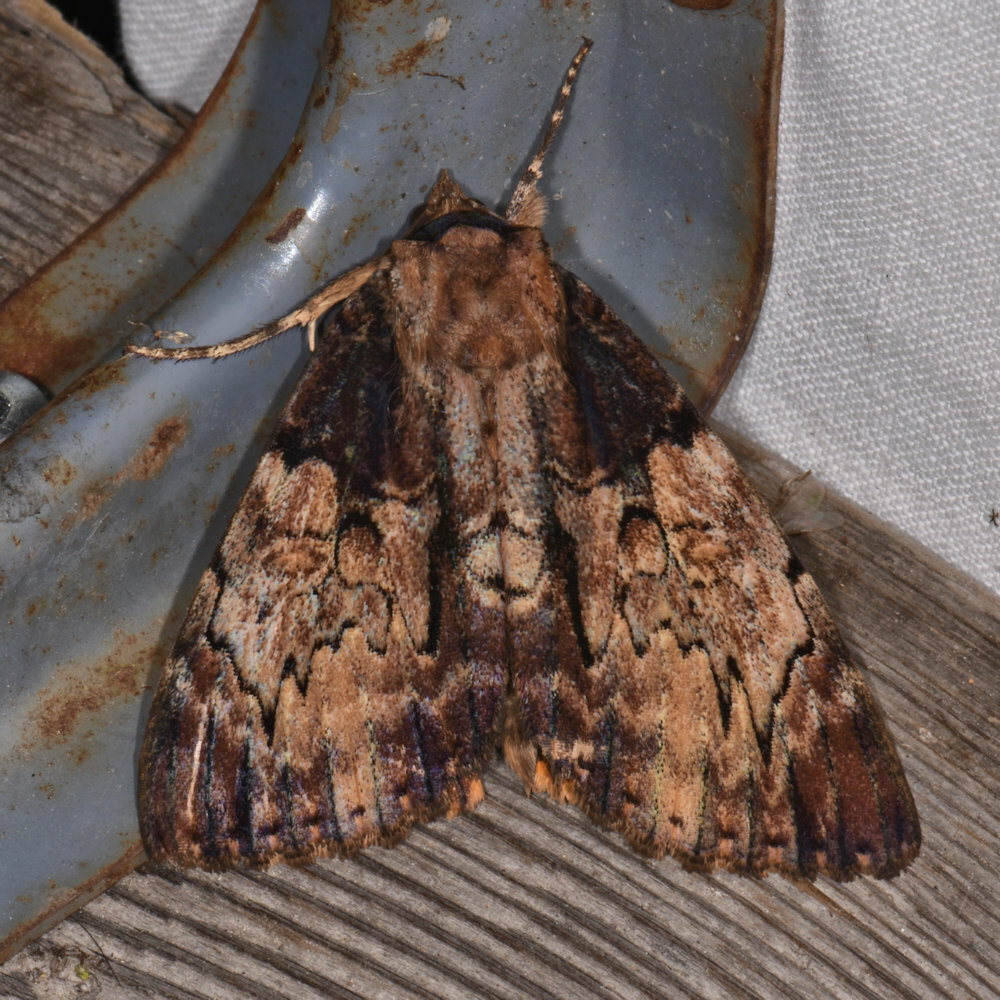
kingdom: Animalia
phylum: Arthropoda
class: Insecta
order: Lepidoptera
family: Erebidae
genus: Catocala
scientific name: Catocala nebulosa
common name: Clouded underwing
